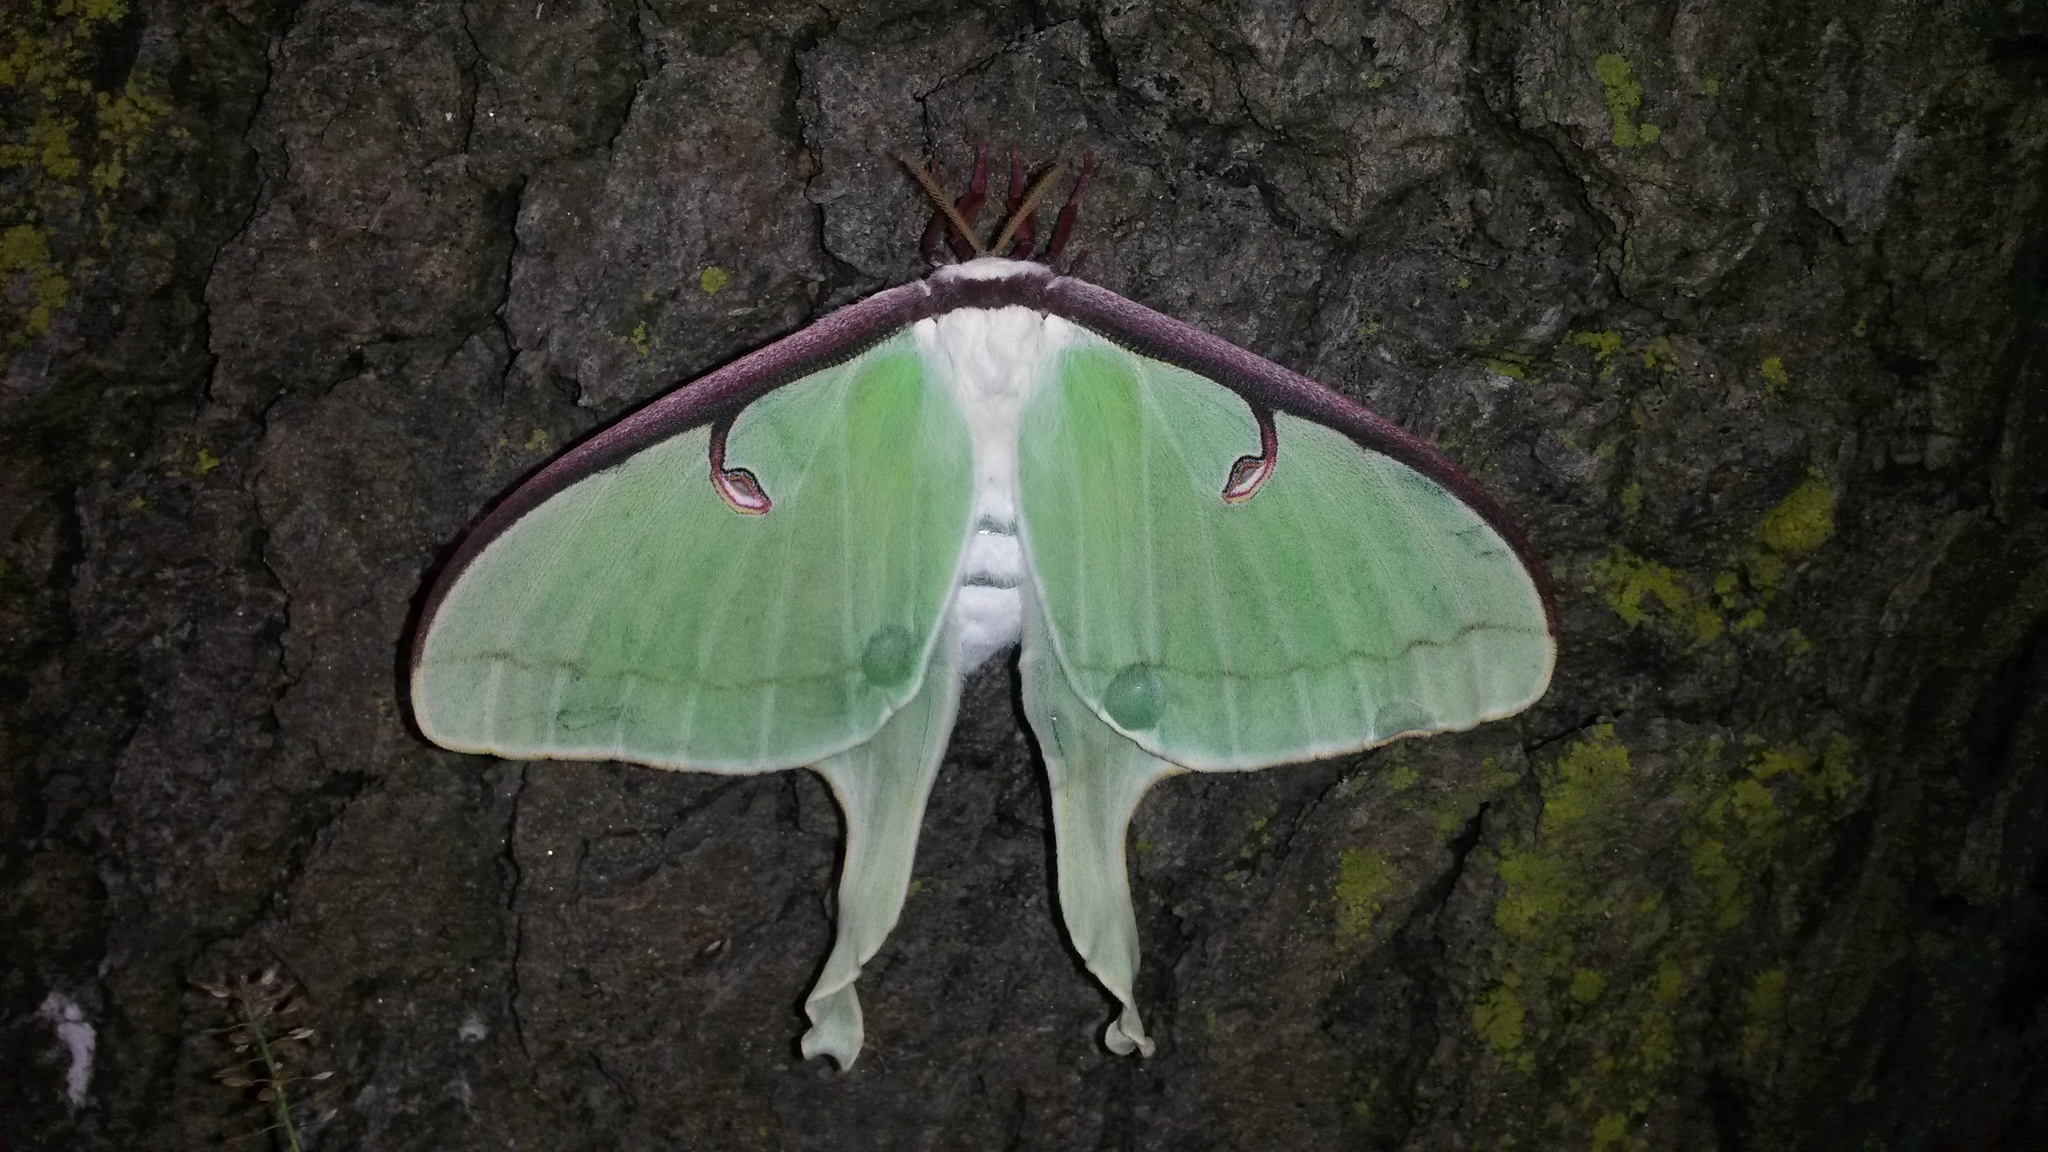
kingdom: Animalia
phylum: Arthropoda
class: Insecta
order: Lepidoptera
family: Saturniidae
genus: Actias
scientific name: Actias luna
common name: Luna moth
